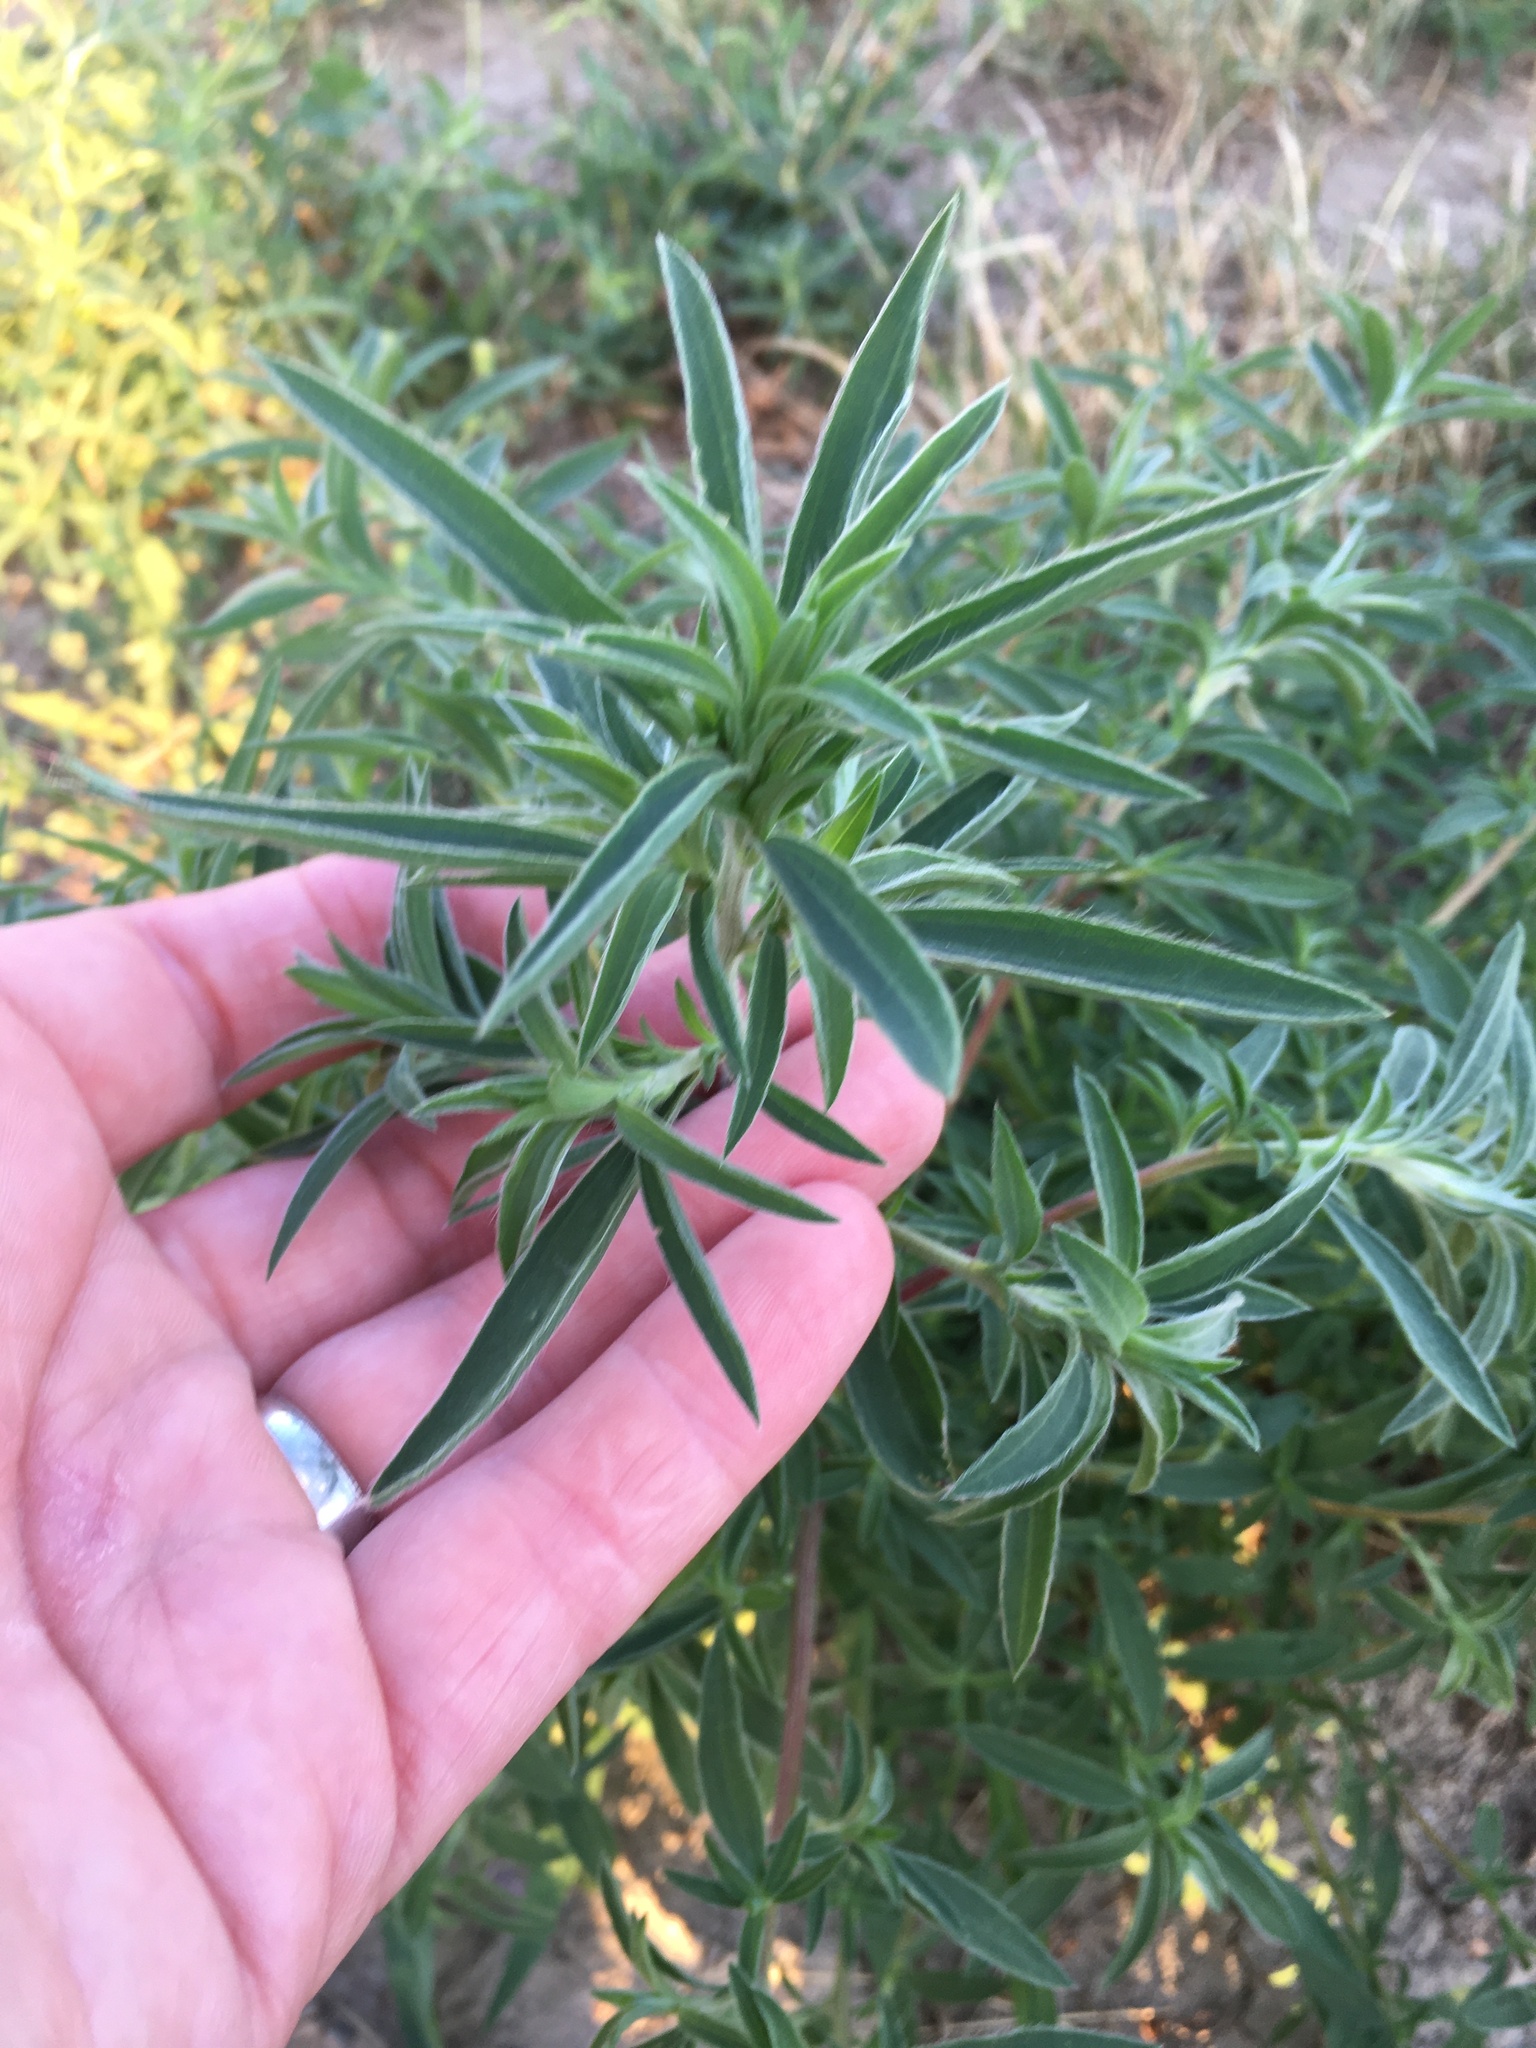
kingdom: Plantae
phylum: Tracheophyta
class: Magnoliopsida
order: Caryophyllales
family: Amaranthaceae
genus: Bassia
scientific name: Bassia scoparia
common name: Belvedere
